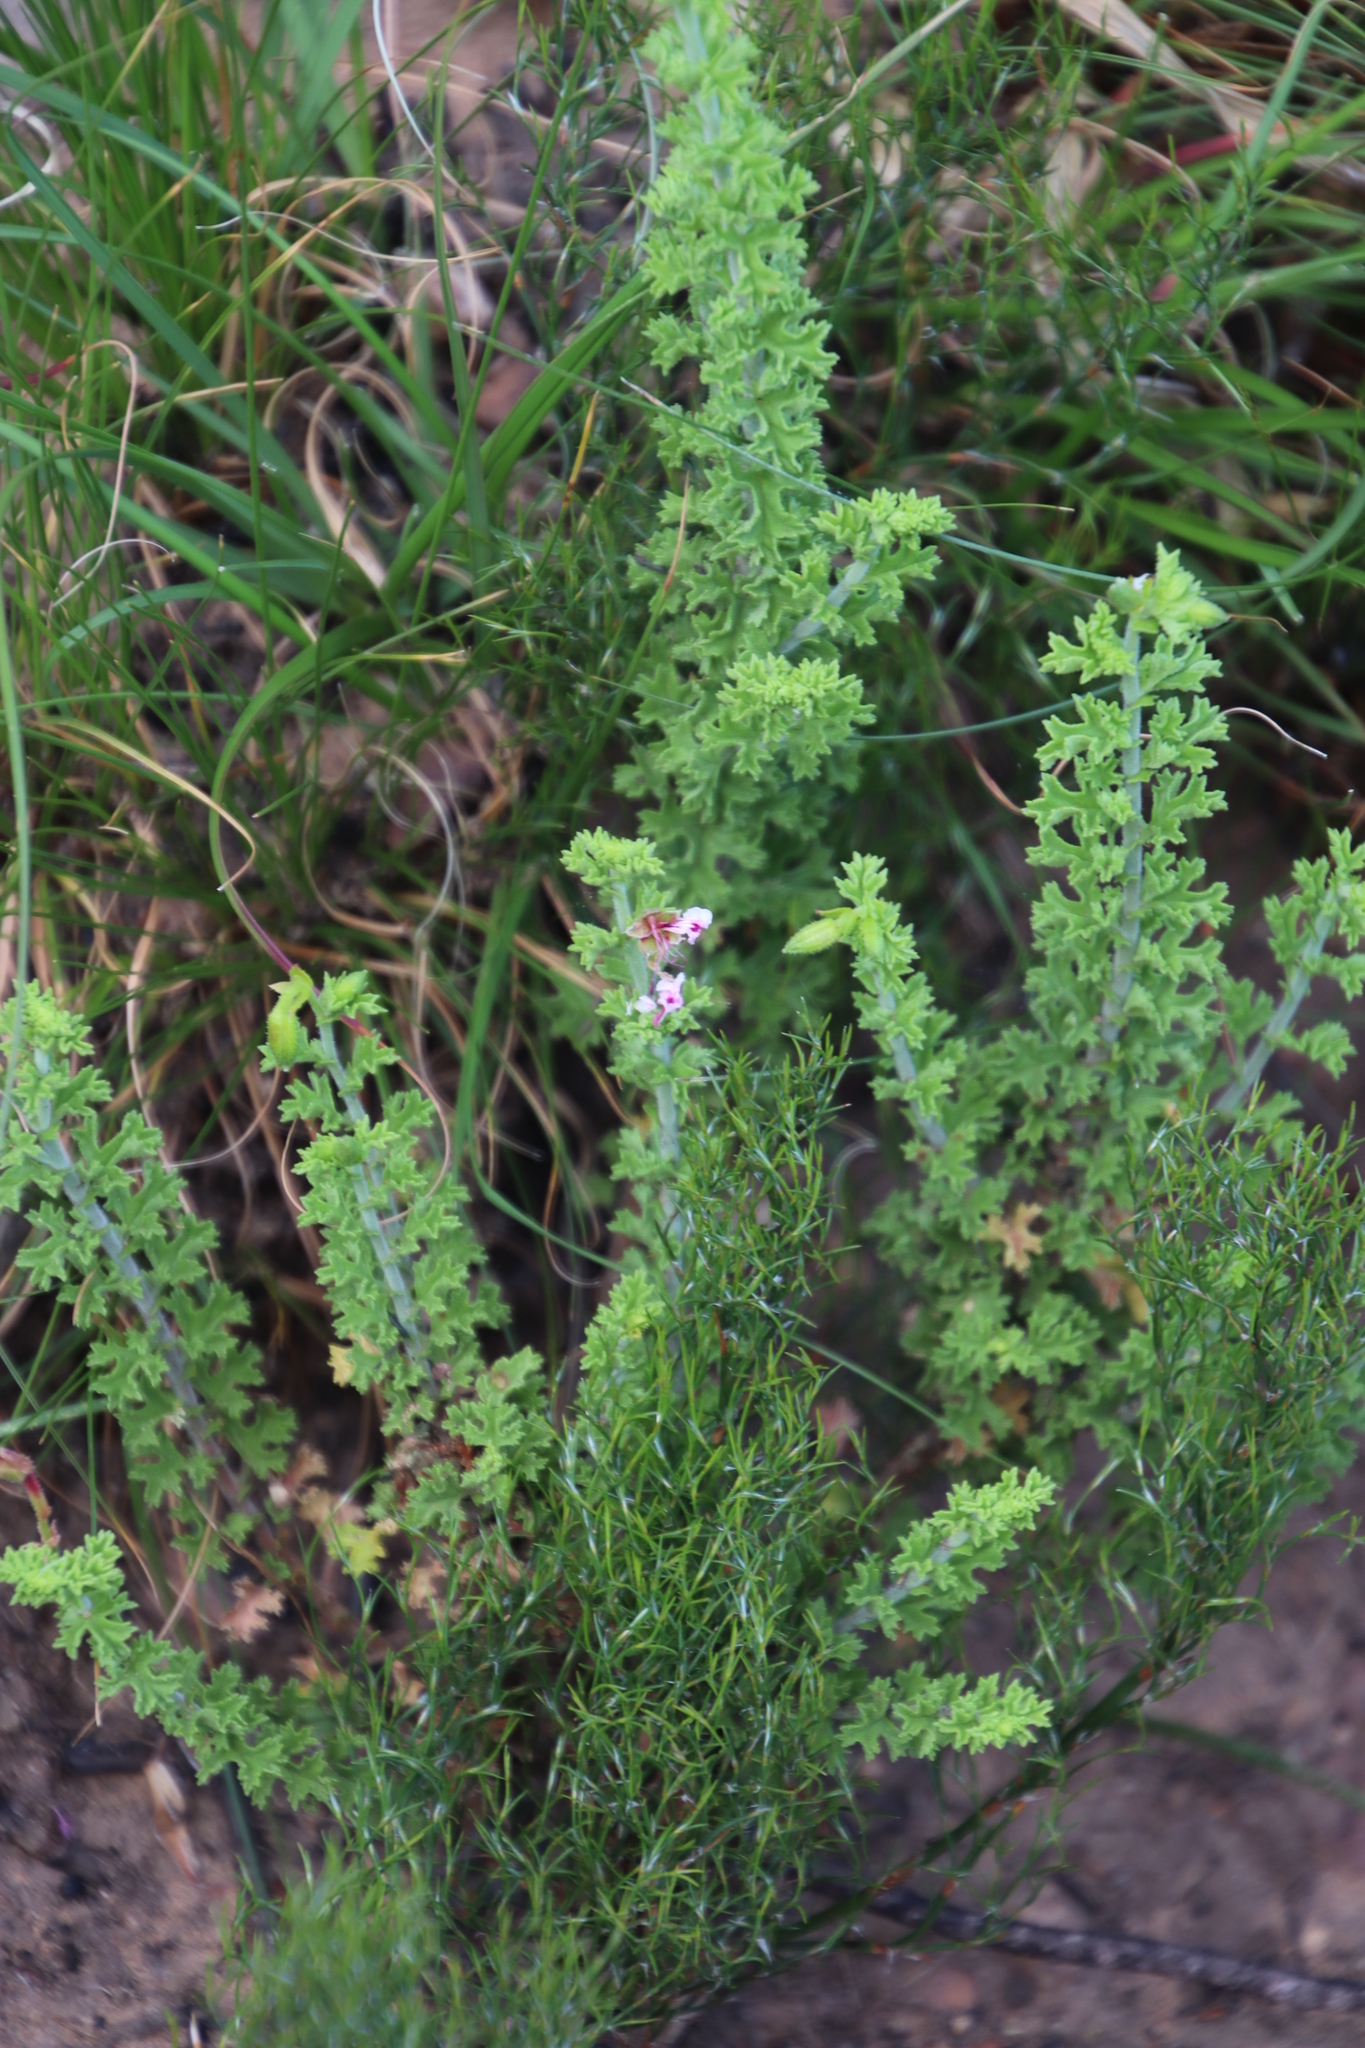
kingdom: Plantae
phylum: Tracheophyta
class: Magnoliopsida
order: Geraniales
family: Geraniaceae
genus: Pelargonium
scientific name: Pelargonium crispum
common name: Crisped-leaf pelargonium
